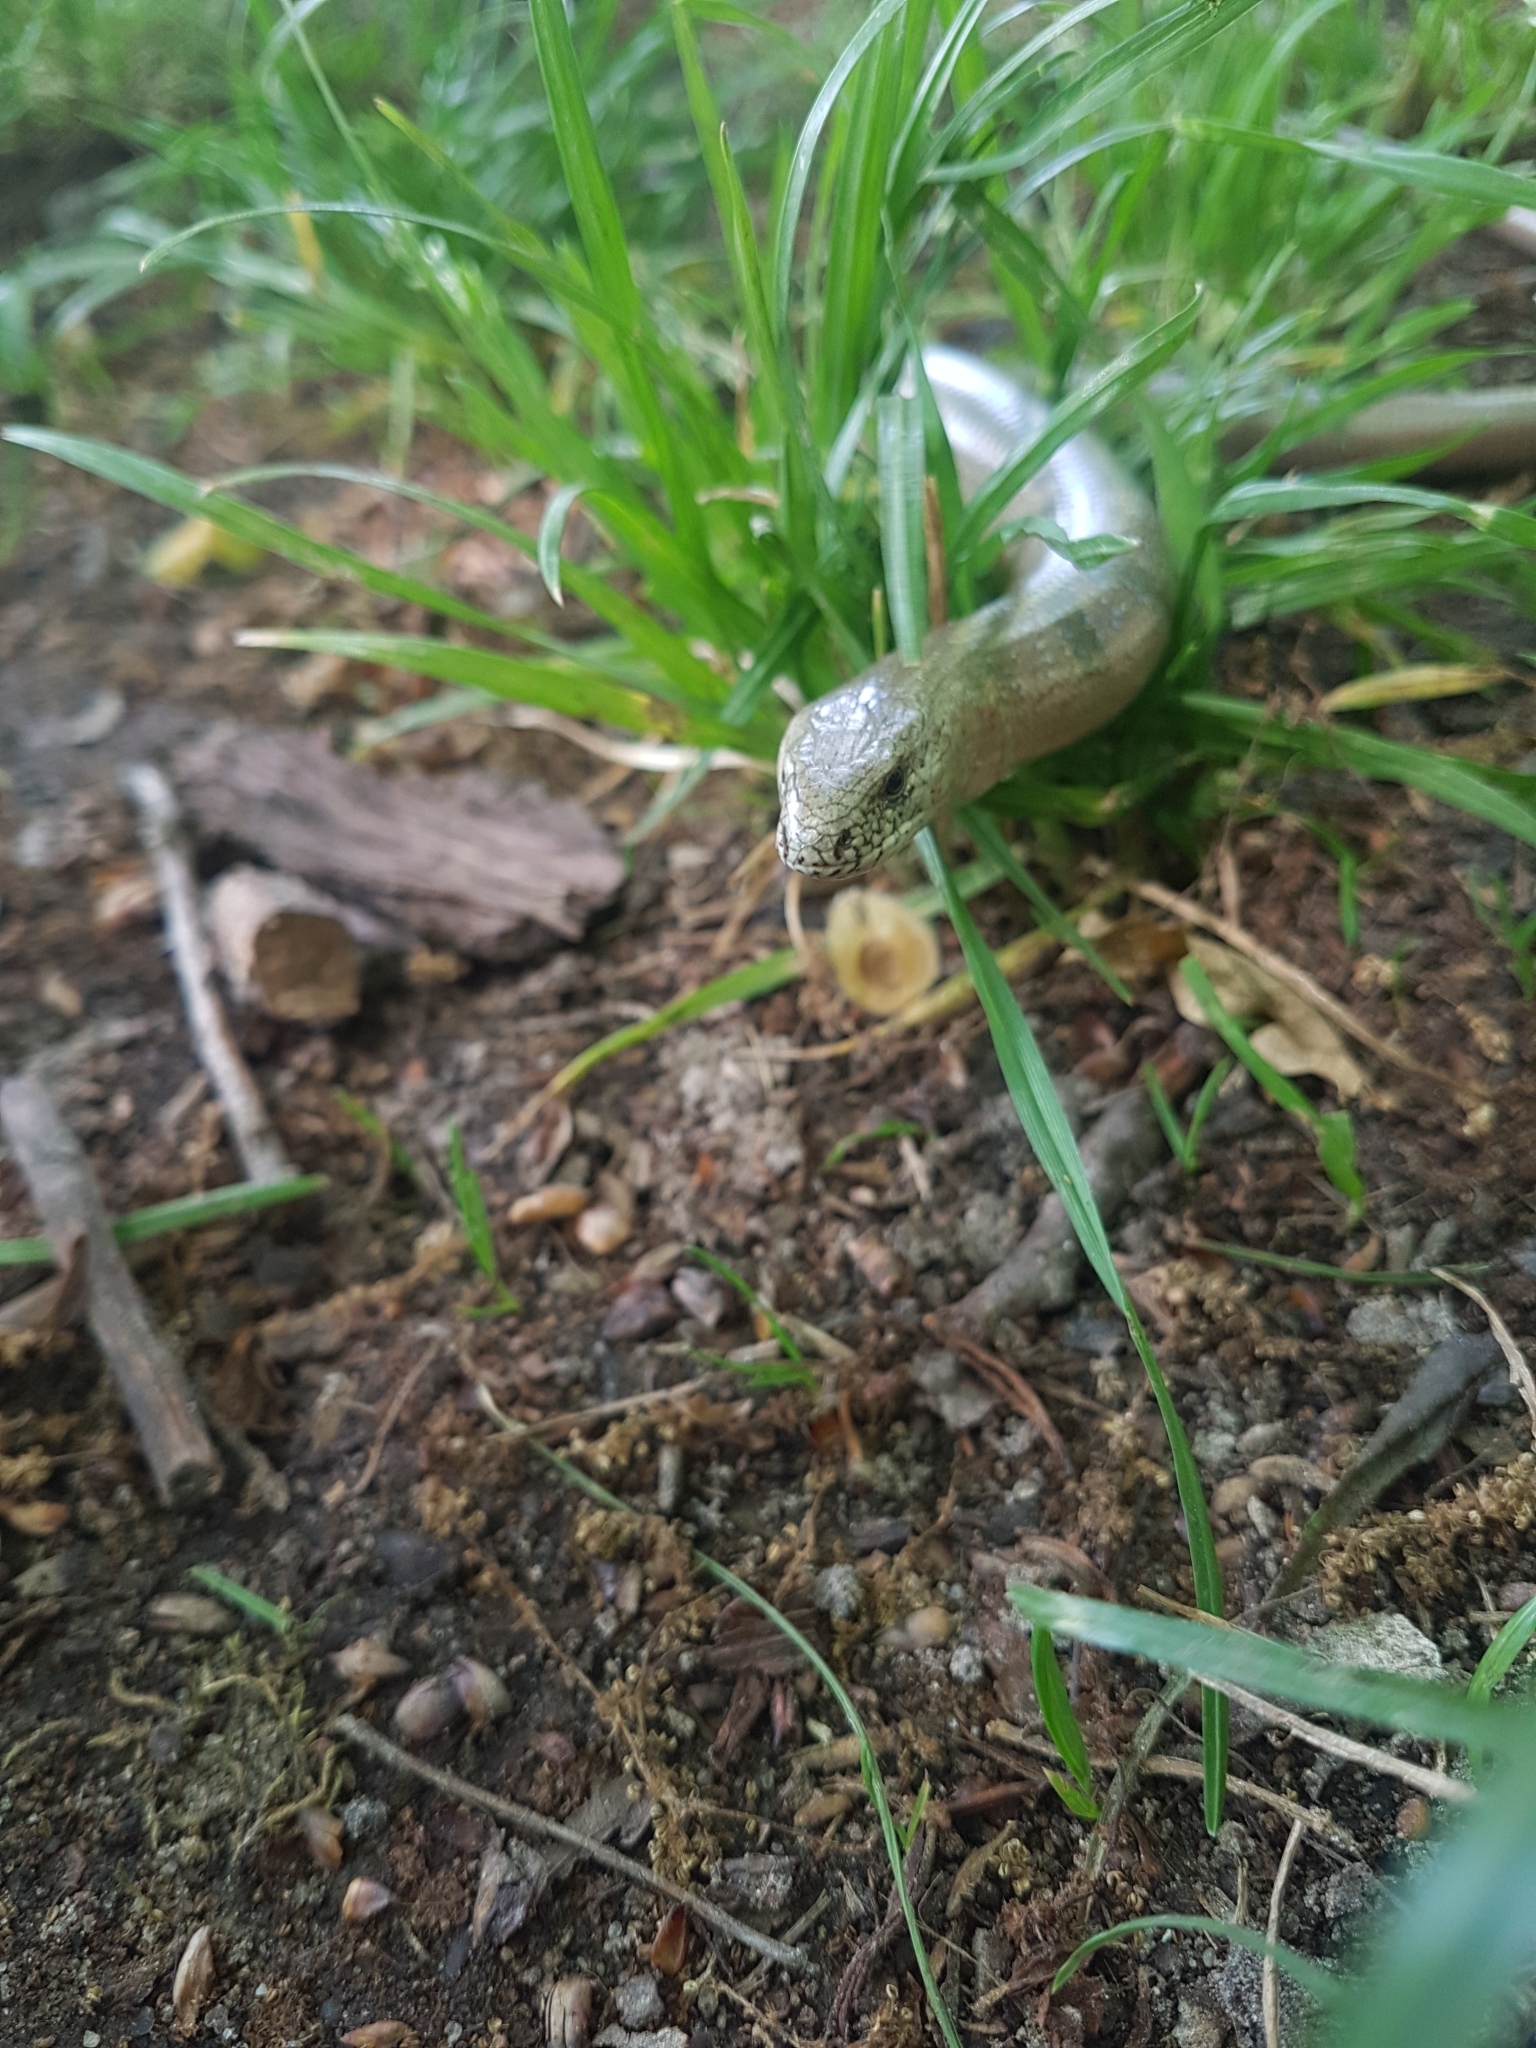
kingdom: Animalia
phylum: Chordata
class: Squamata
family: Anguidae
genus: Anguis
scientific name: Anguis fragilis
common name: Slow worm
